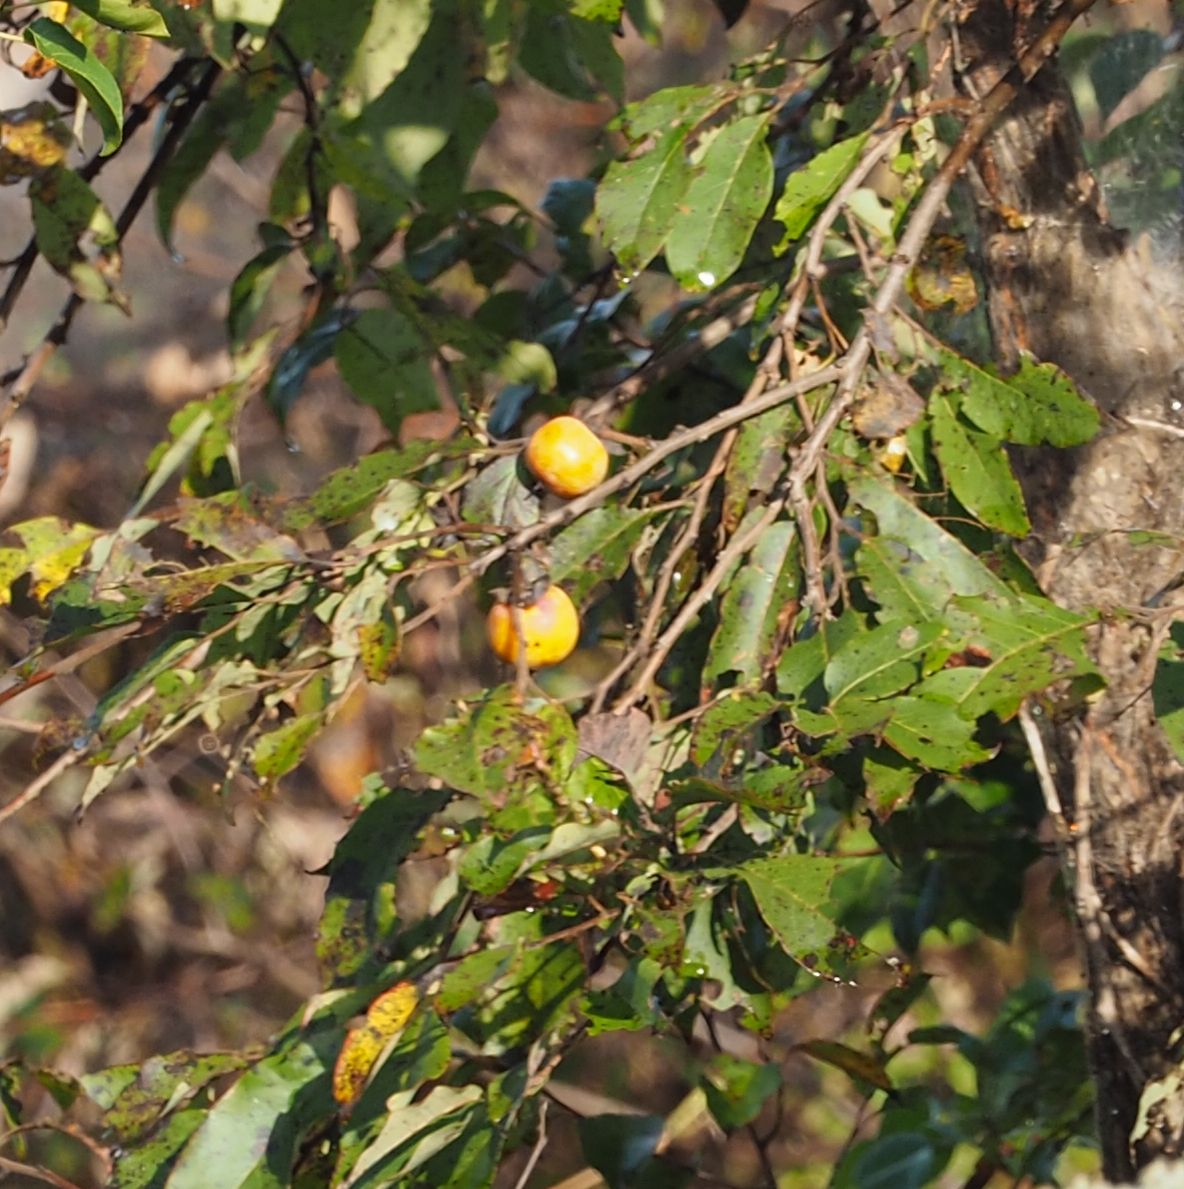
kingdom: Plantae
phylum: Tracheophyta
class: Magnoliopsida
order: Ericales
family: Ebenaceae
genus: Diospyros
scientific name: Diospyros virginiana
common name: Persimmon
